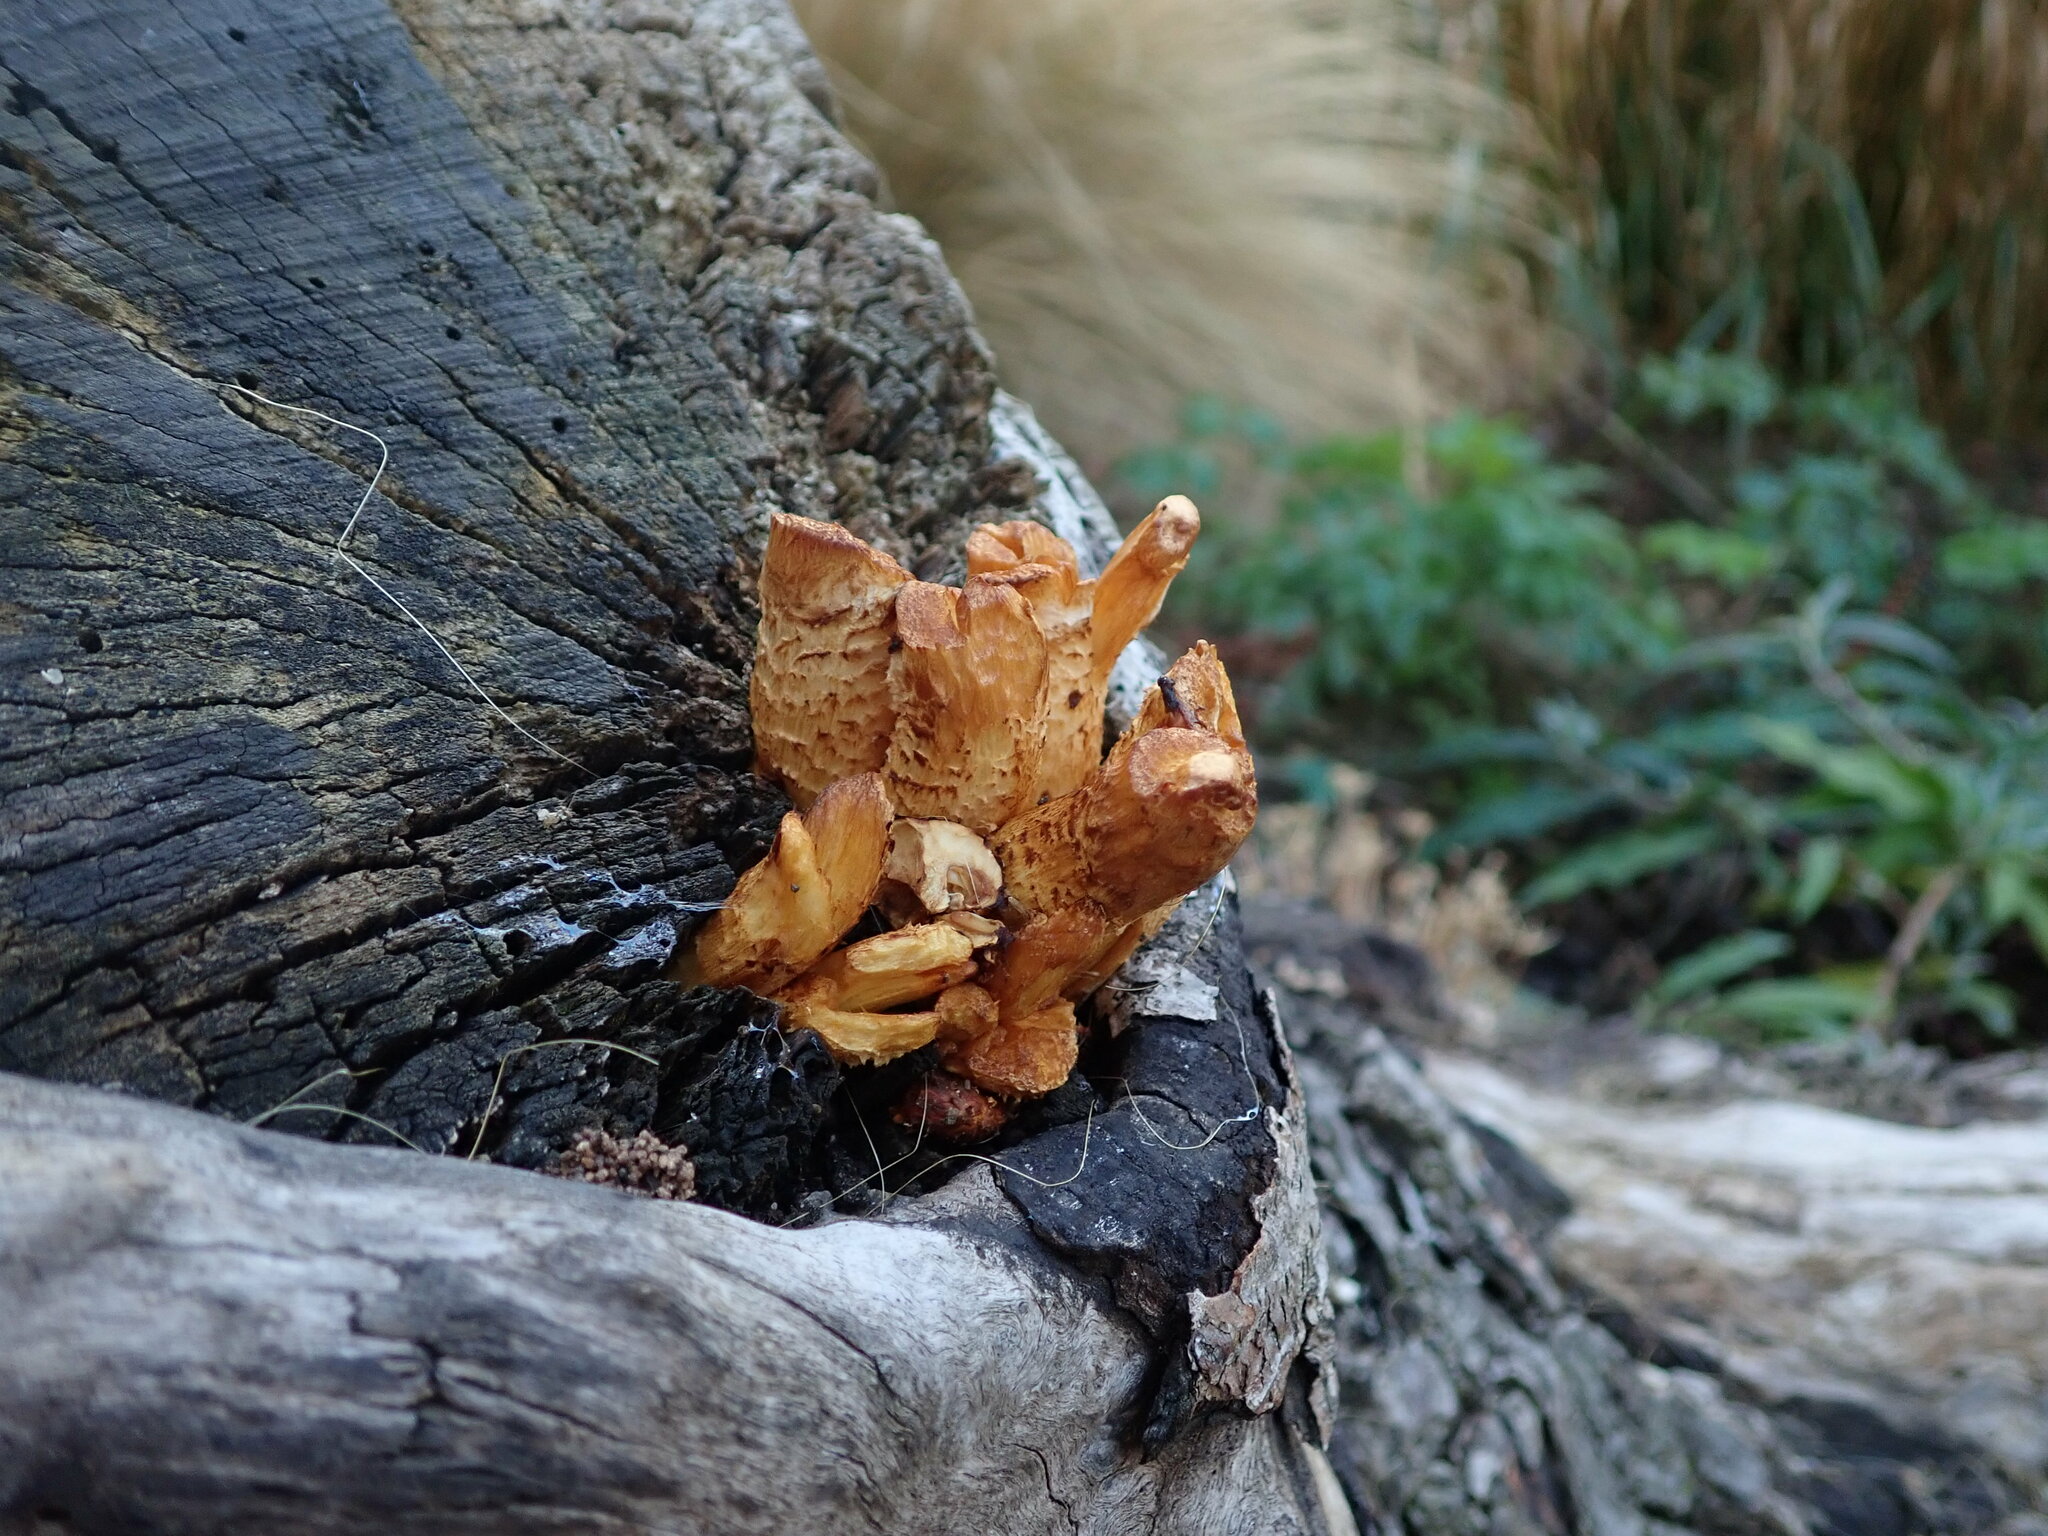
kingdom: Fungi
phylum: Basidiomycota
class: Agaricomycetes
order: Agaricales
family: Strophariaceae
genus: Pholiota
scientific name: Pholiota squarrosa
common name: Shaggy pholiota
